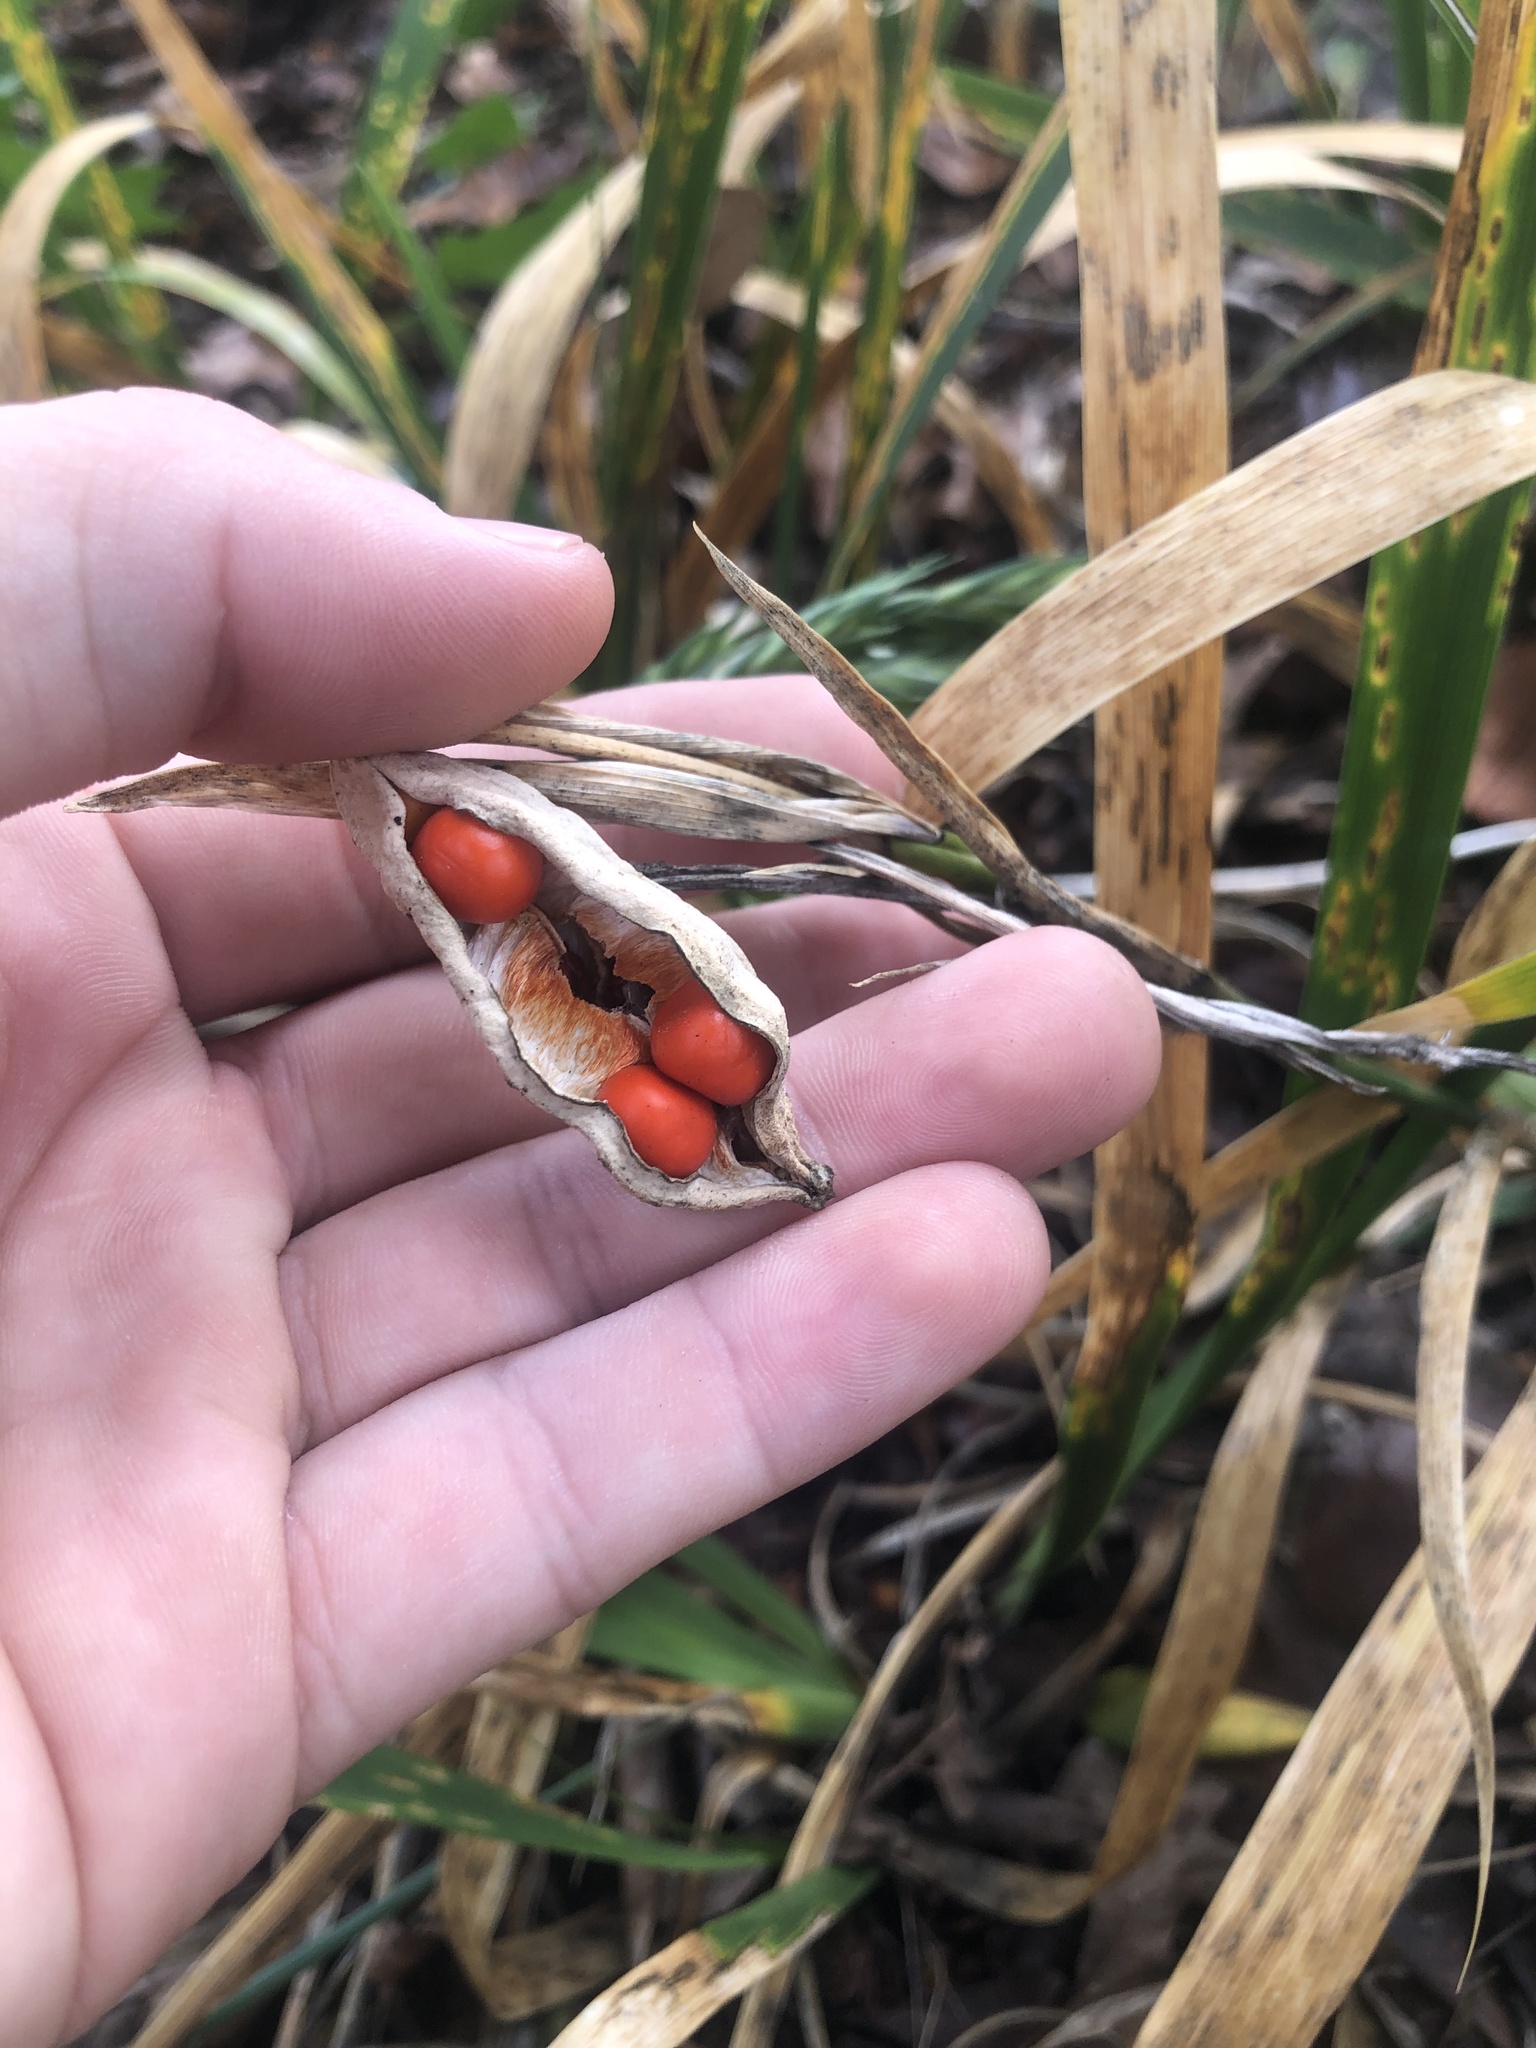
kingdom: Plantae
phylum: Tracheophyta
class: Liliopsida
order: Asparagales
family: Iridaceae
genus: Iris
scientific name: Iris foetidissima
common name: Stinking iris
